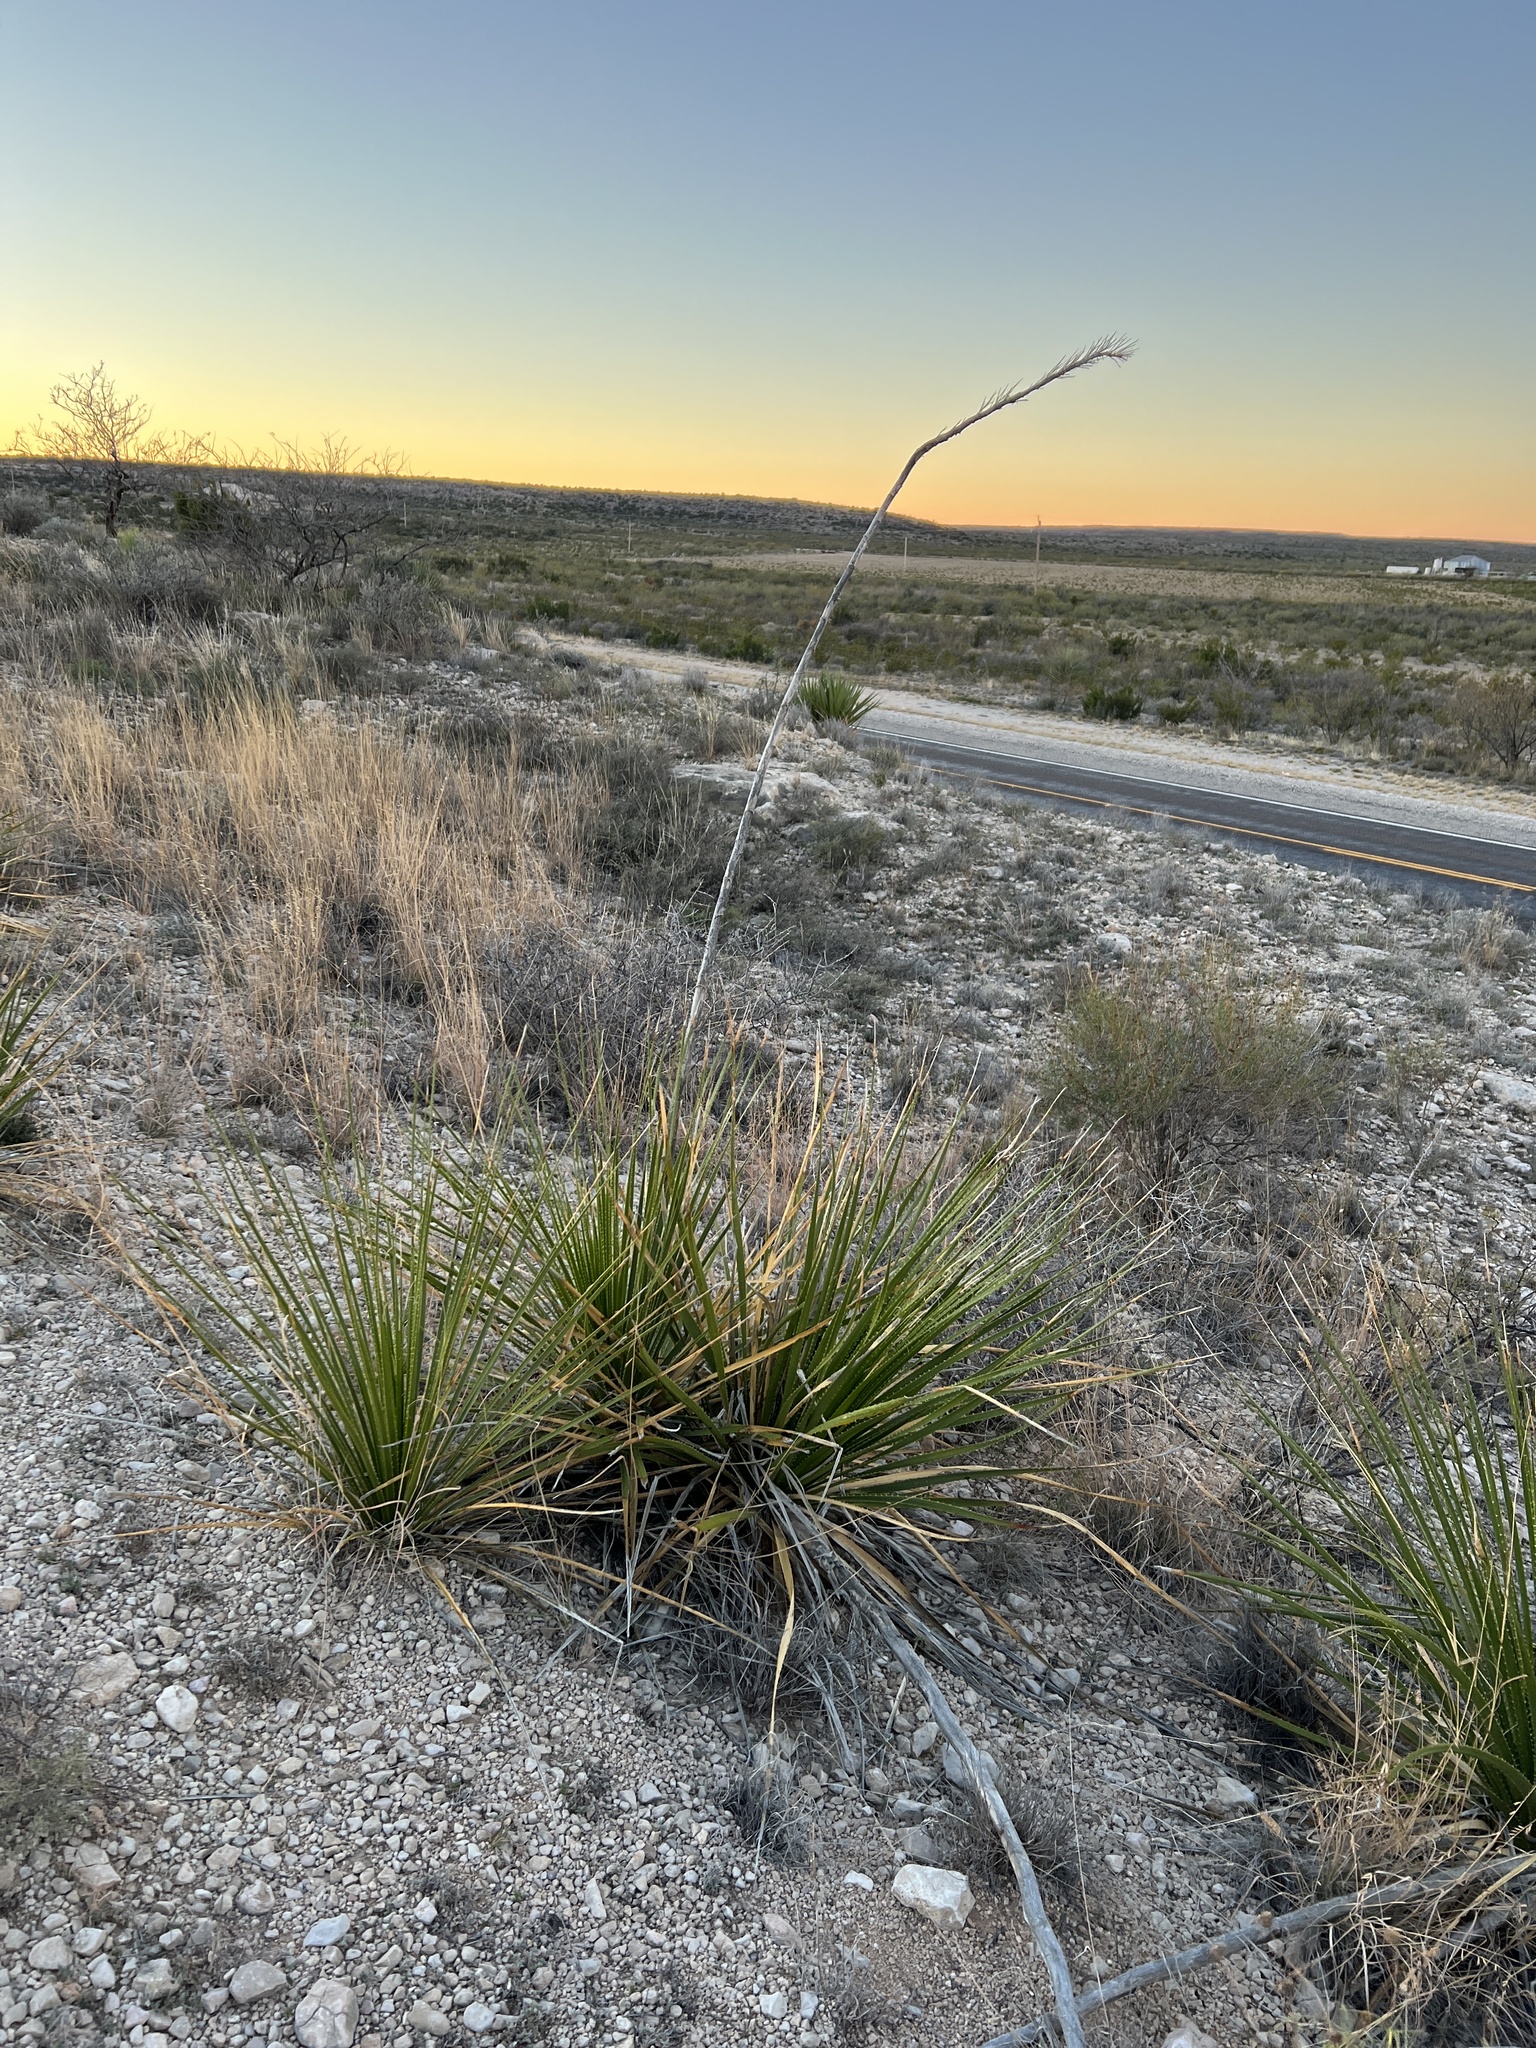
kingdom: Plantae
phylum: Tracheophyta
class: Liliopsida
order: Asparagales
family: Asparagaceae
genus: Dasylirion
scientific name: Dasylirion texanum
